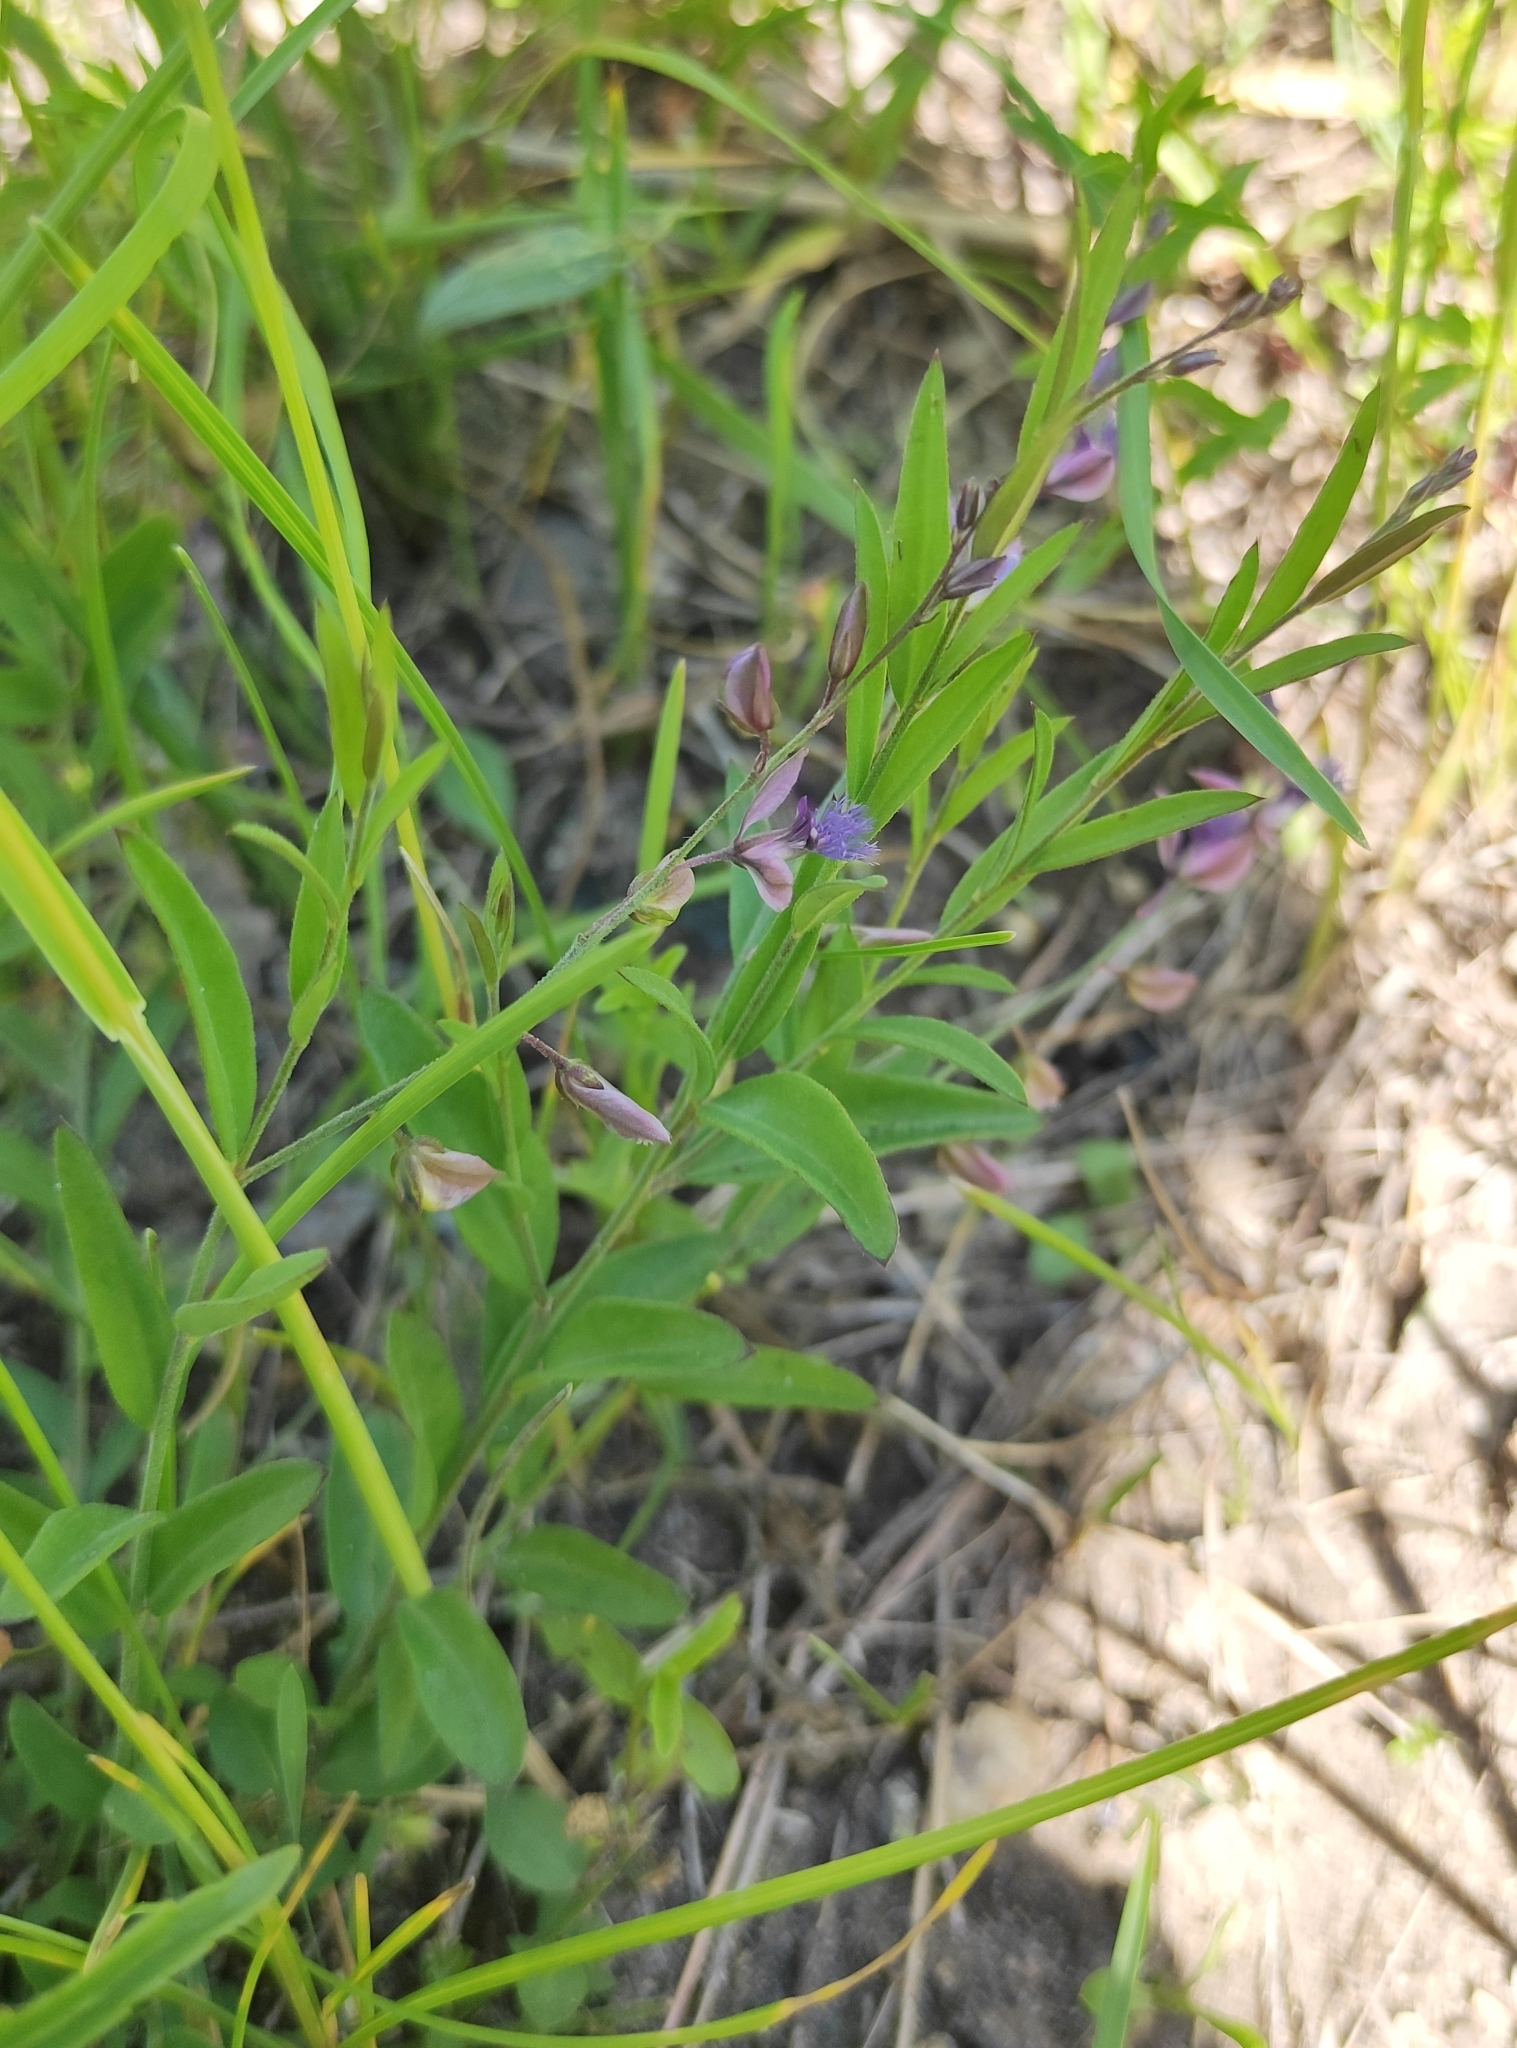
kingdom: Plantae
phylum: Tracheophyta
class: Magnoliopsida
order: Fabales
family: Polygalaceae
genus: Polygala
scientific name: Polygala sibirica
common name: Siberian polygala
